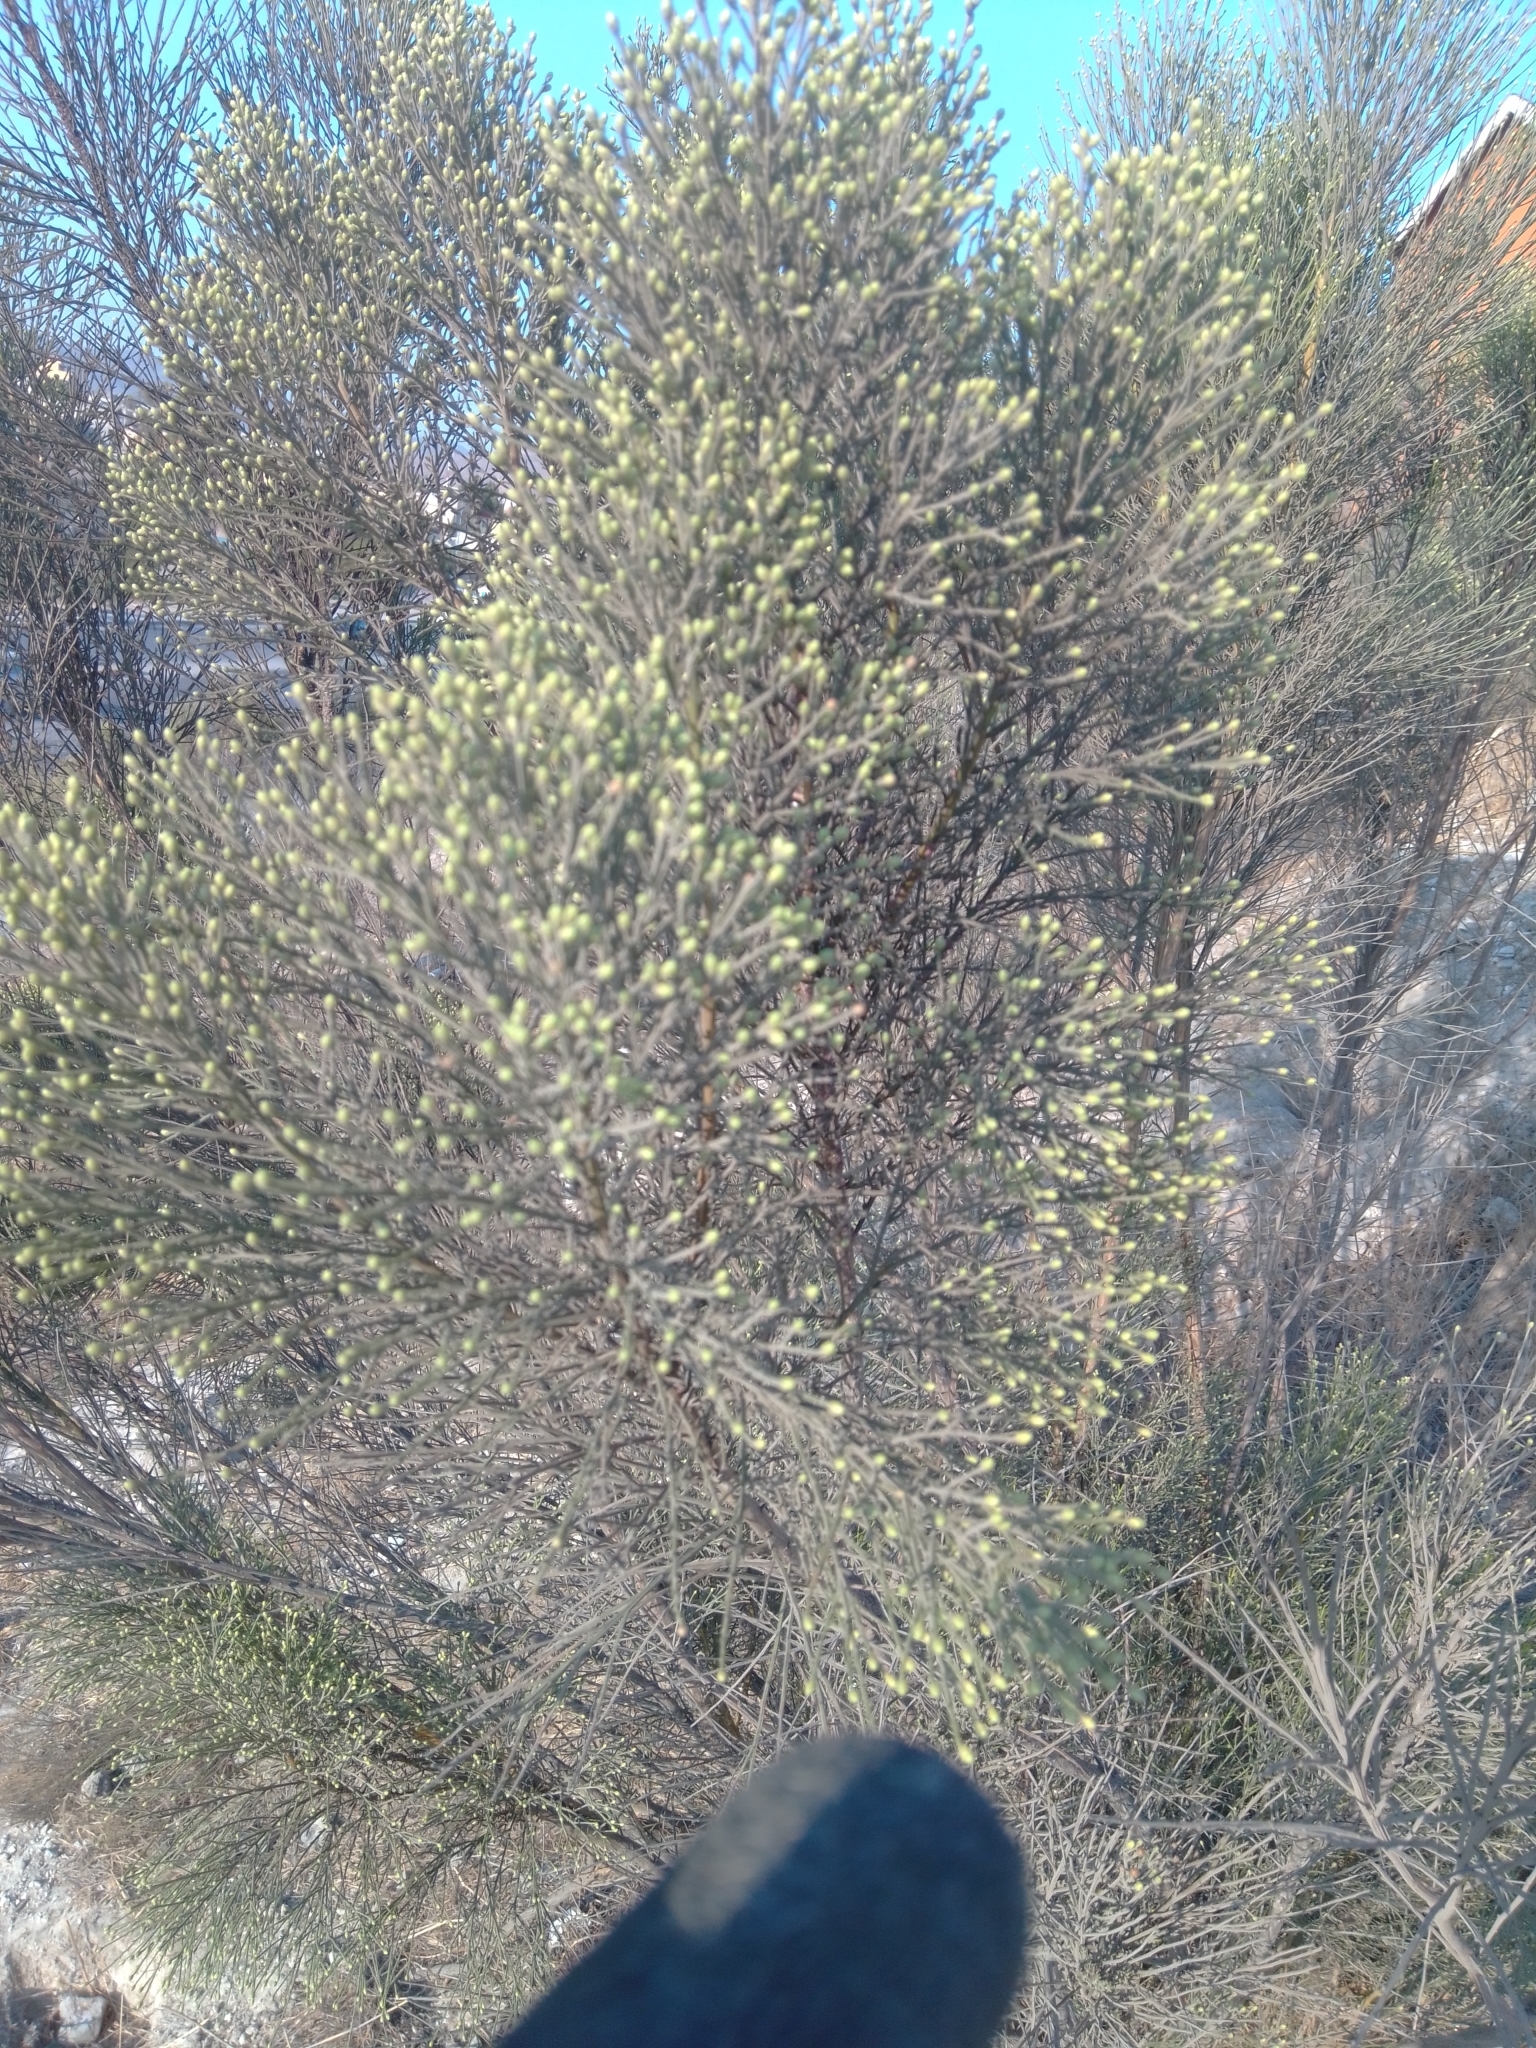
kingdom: Plantae
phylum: Tracheophyta
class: Magnoliopsida
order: Asterales
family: Asteraceae
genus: Baccharis
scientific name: Baccharis sarothroides
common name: Desert-broom
